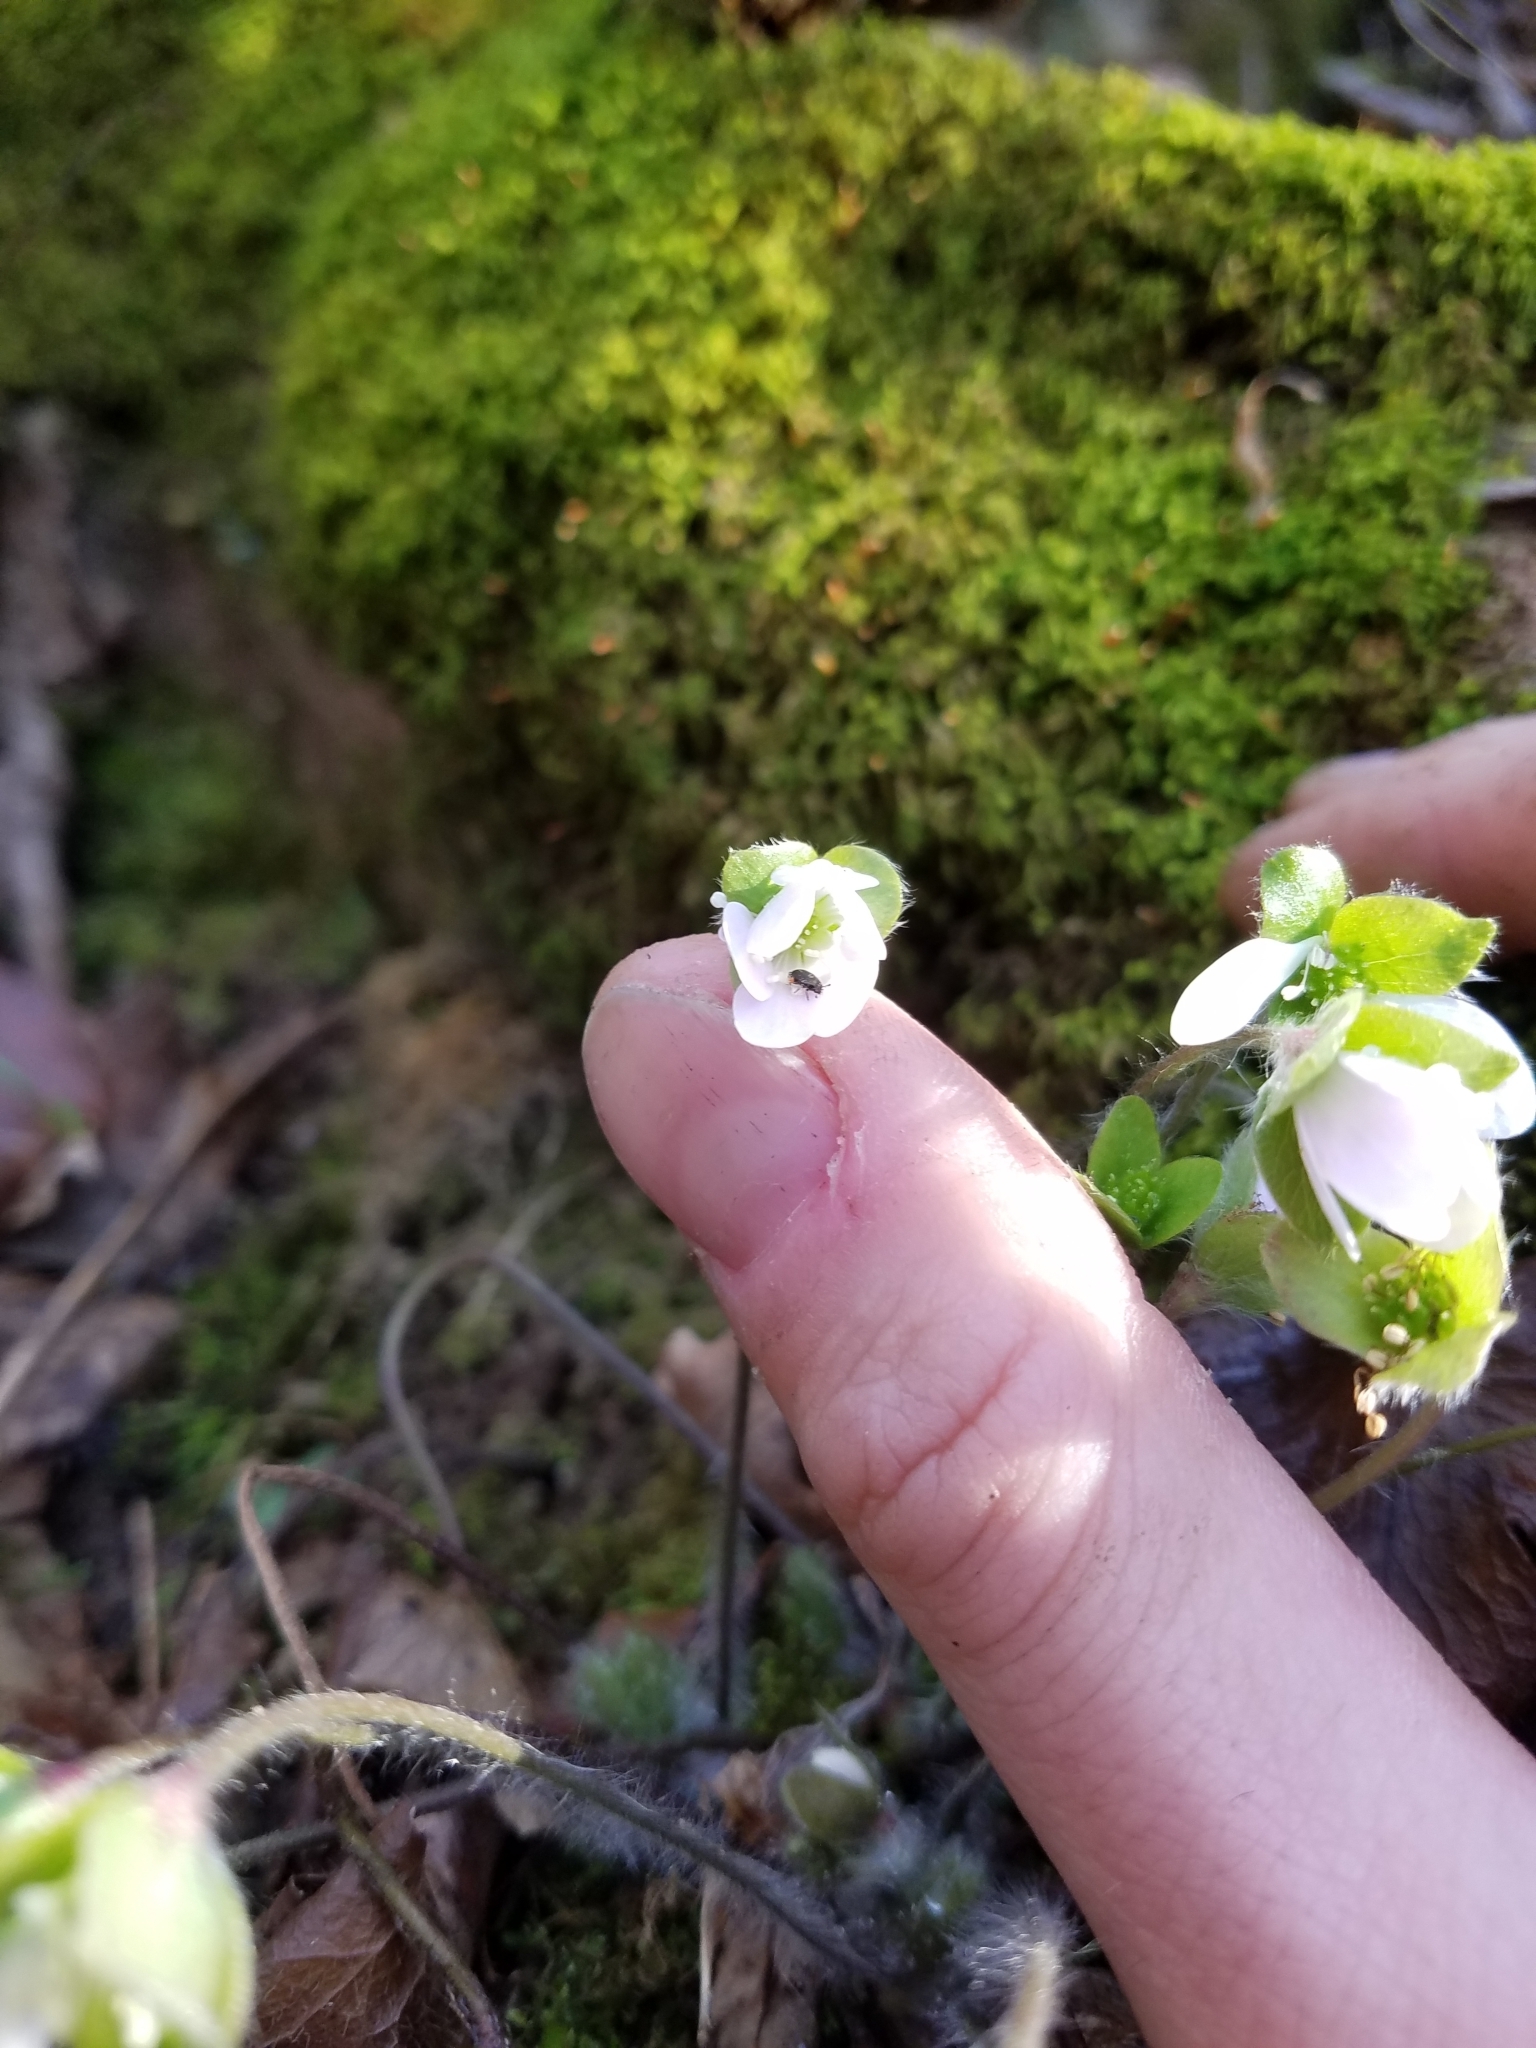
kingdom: Plantae
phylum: Tracheophyta
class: Magnoliopsida
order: Ranunculales
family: Ranunculaceae
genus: Hepatica
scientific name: Hepatica americana
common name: American hepatica
